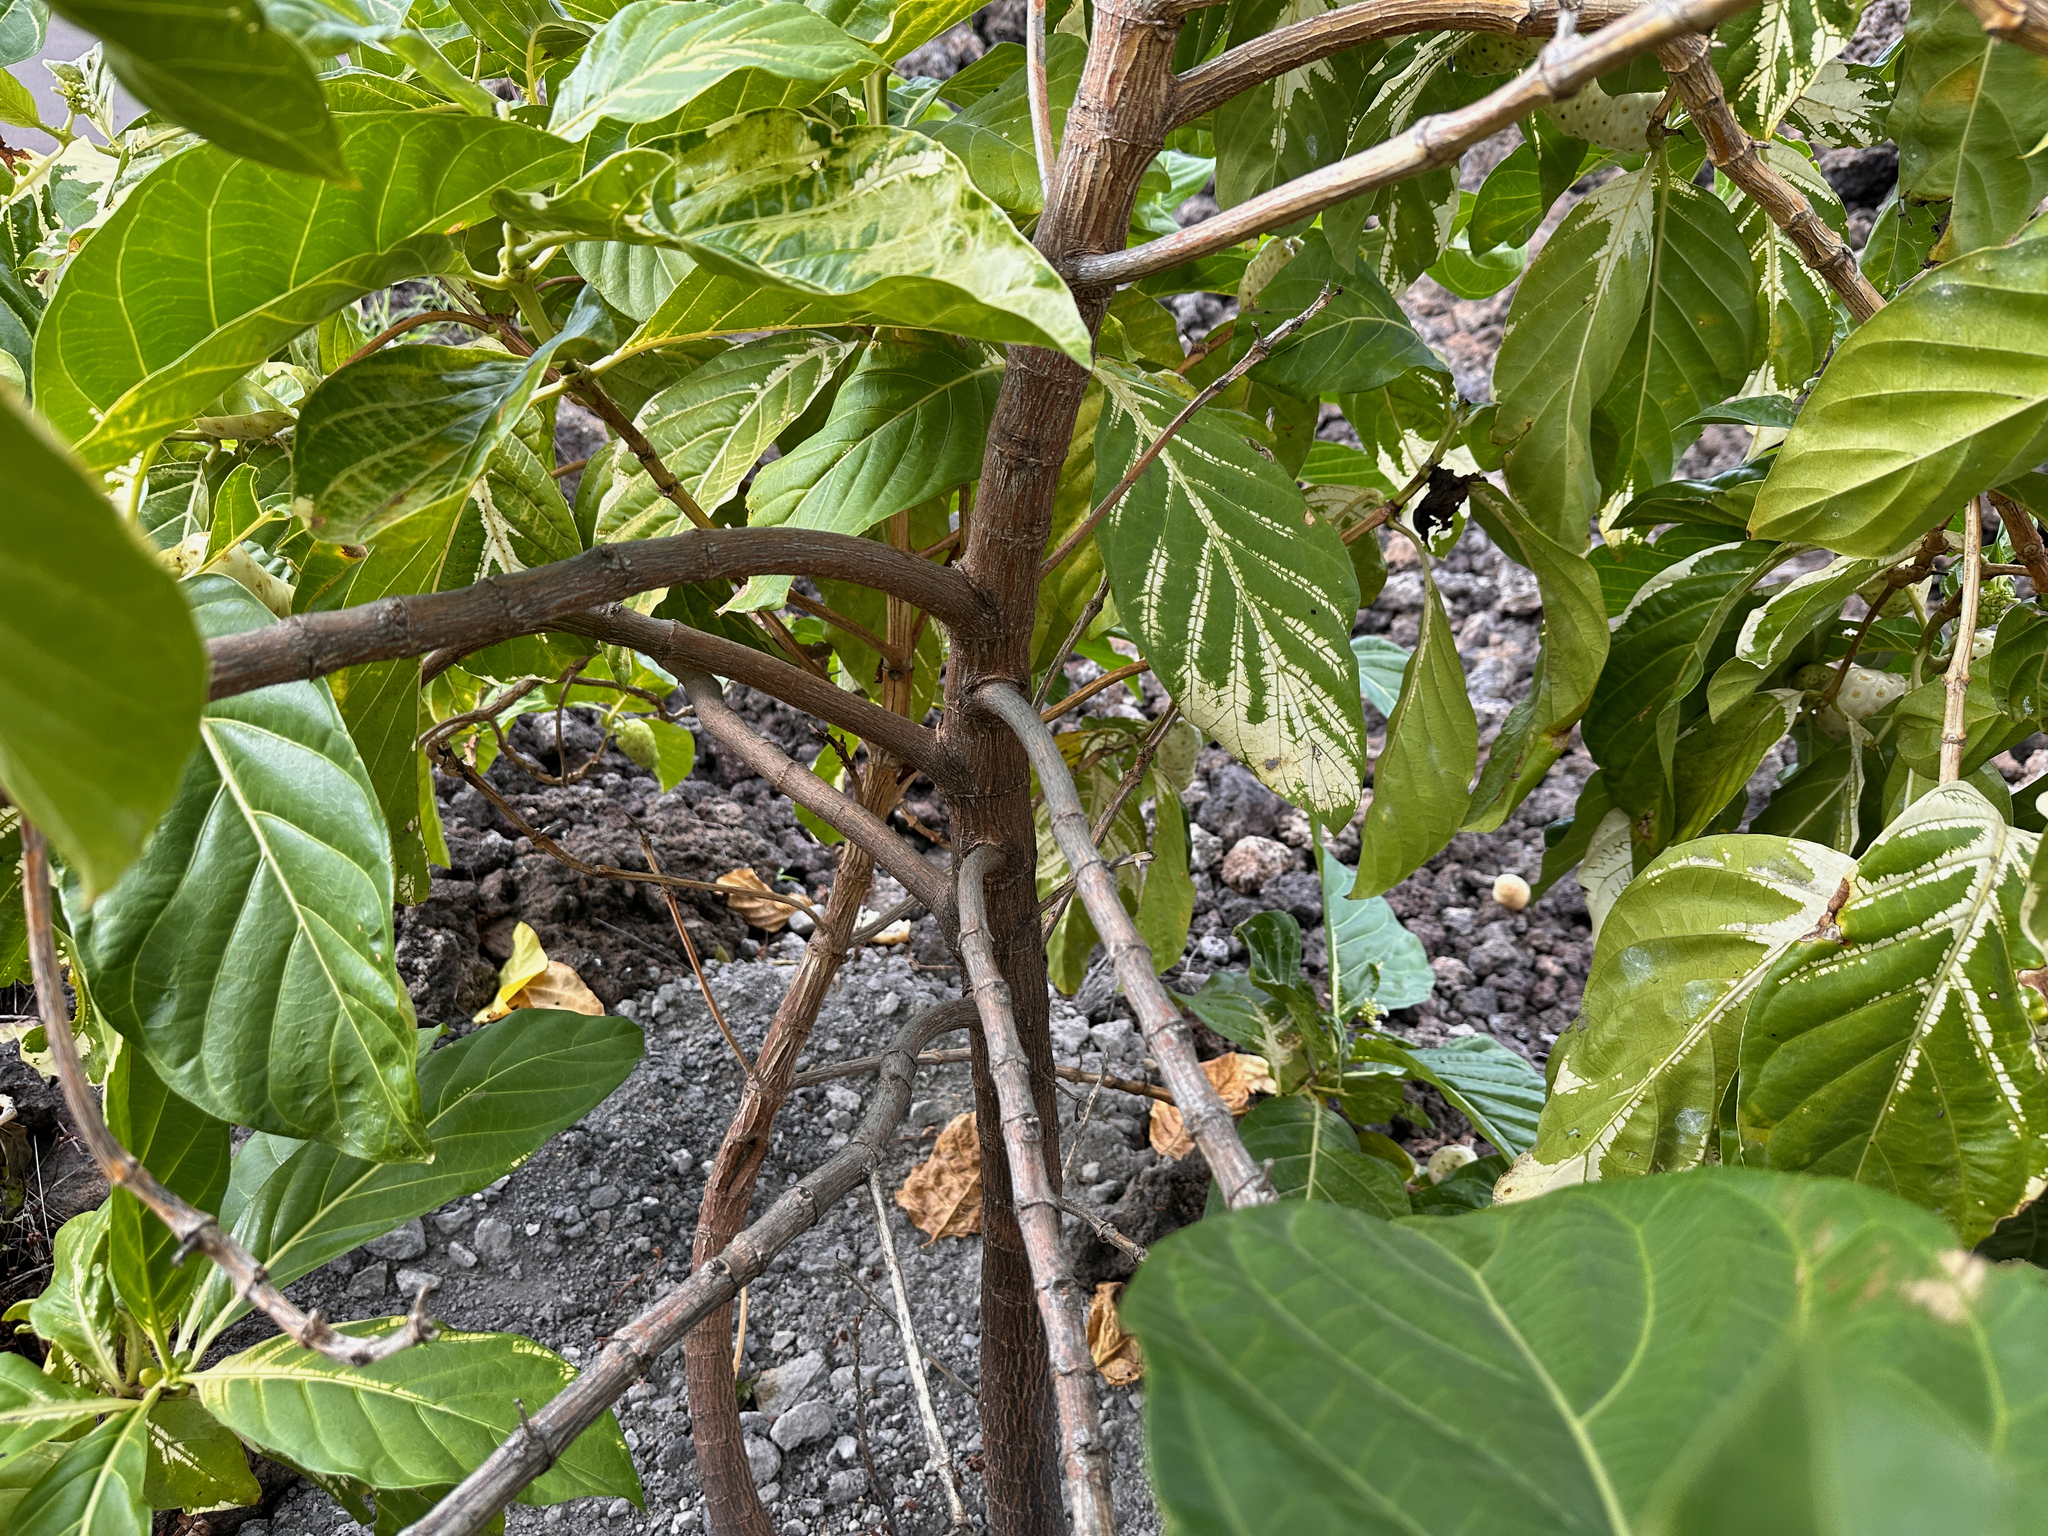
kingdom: Plantae
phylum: Tracheophyta
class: Magnoliopsida
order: Gentianales
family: Rubiaceae
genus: Morinda
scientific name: Morinda citrifolia
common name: Indian-mulberry
